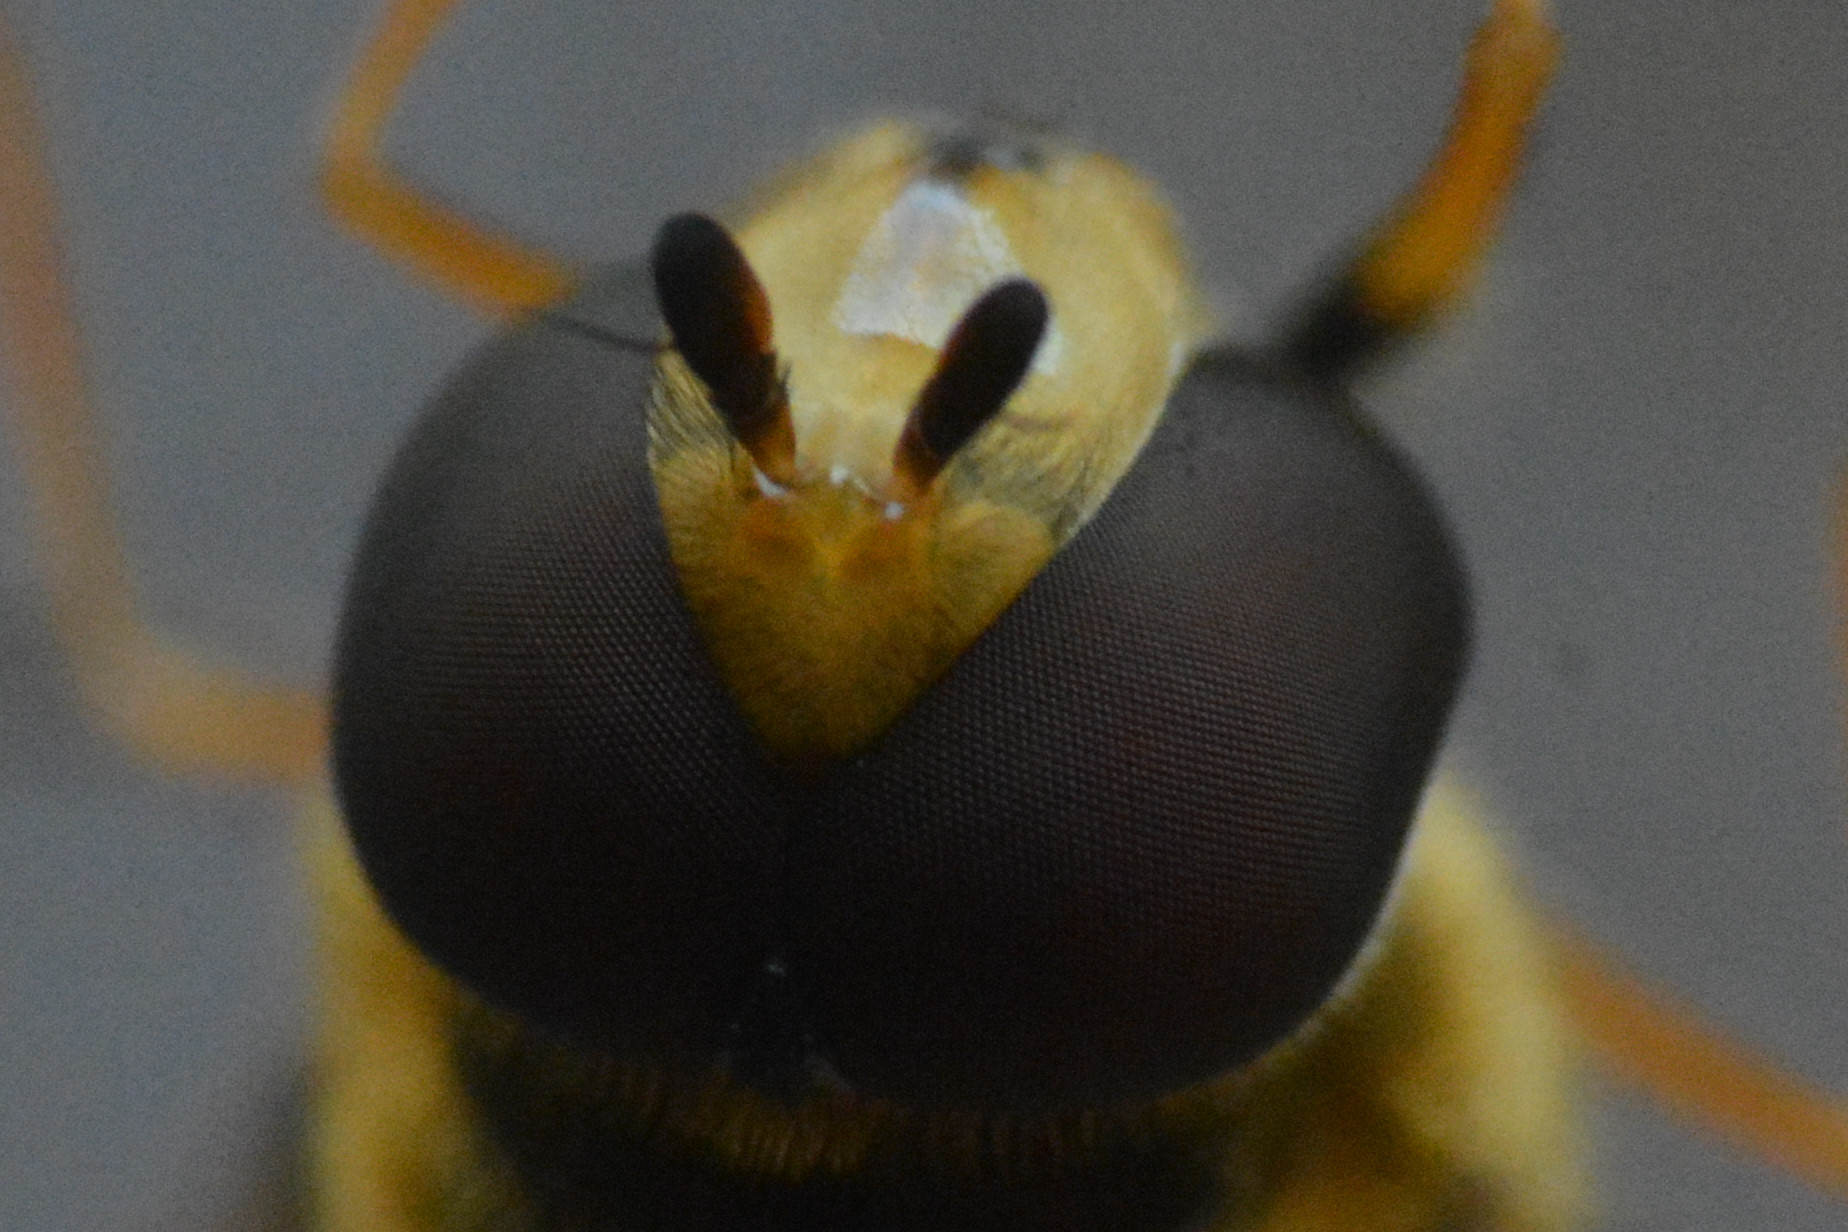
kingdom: Animalia
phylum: Arthropoda
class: Insecta
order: Diptera
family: Syrphidae
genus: Eupeodes
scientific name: Eupeodes luniger
